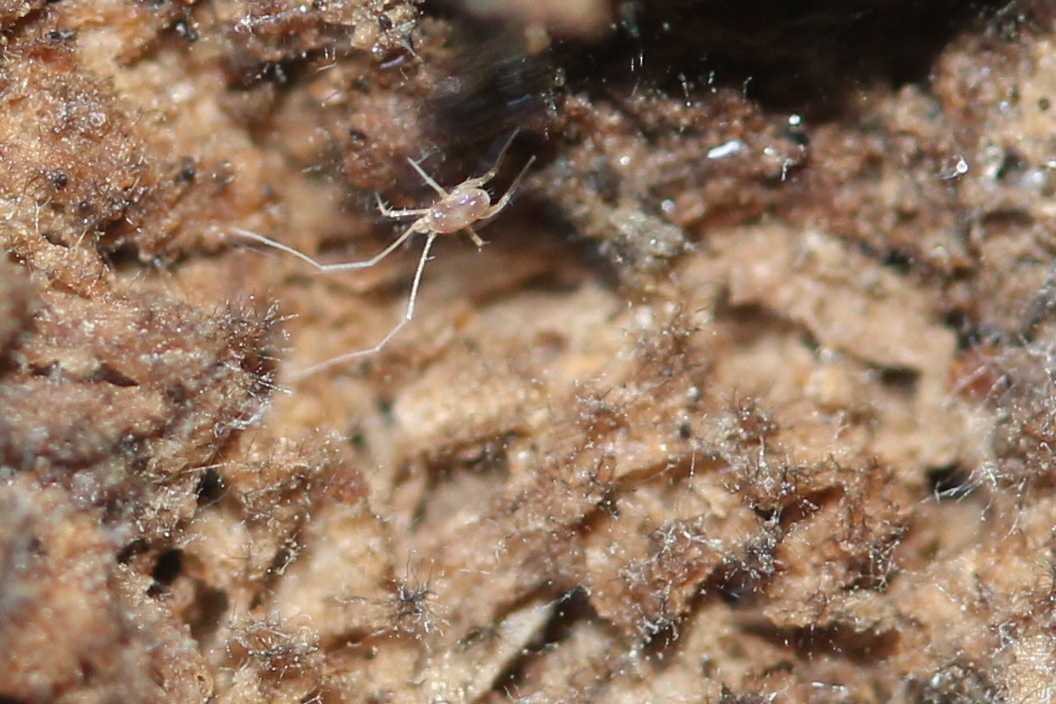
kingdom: Animalia
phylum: Arthropoda
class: Arachnida
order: Trombidiformes
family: Eupodidae
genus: Linopodes
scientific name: Linopodes
